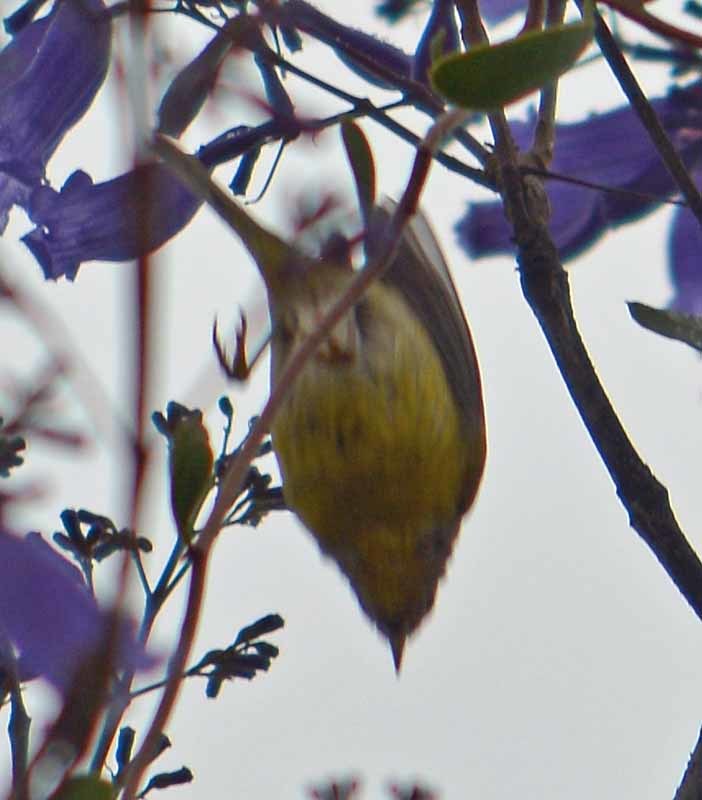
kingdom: Animalia
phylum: Chordata
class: Aves
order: Passeriformes
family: Parulidae
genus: Leiothlypis
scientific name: Leiothlypis ruficapilla
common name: Nashville warbler
